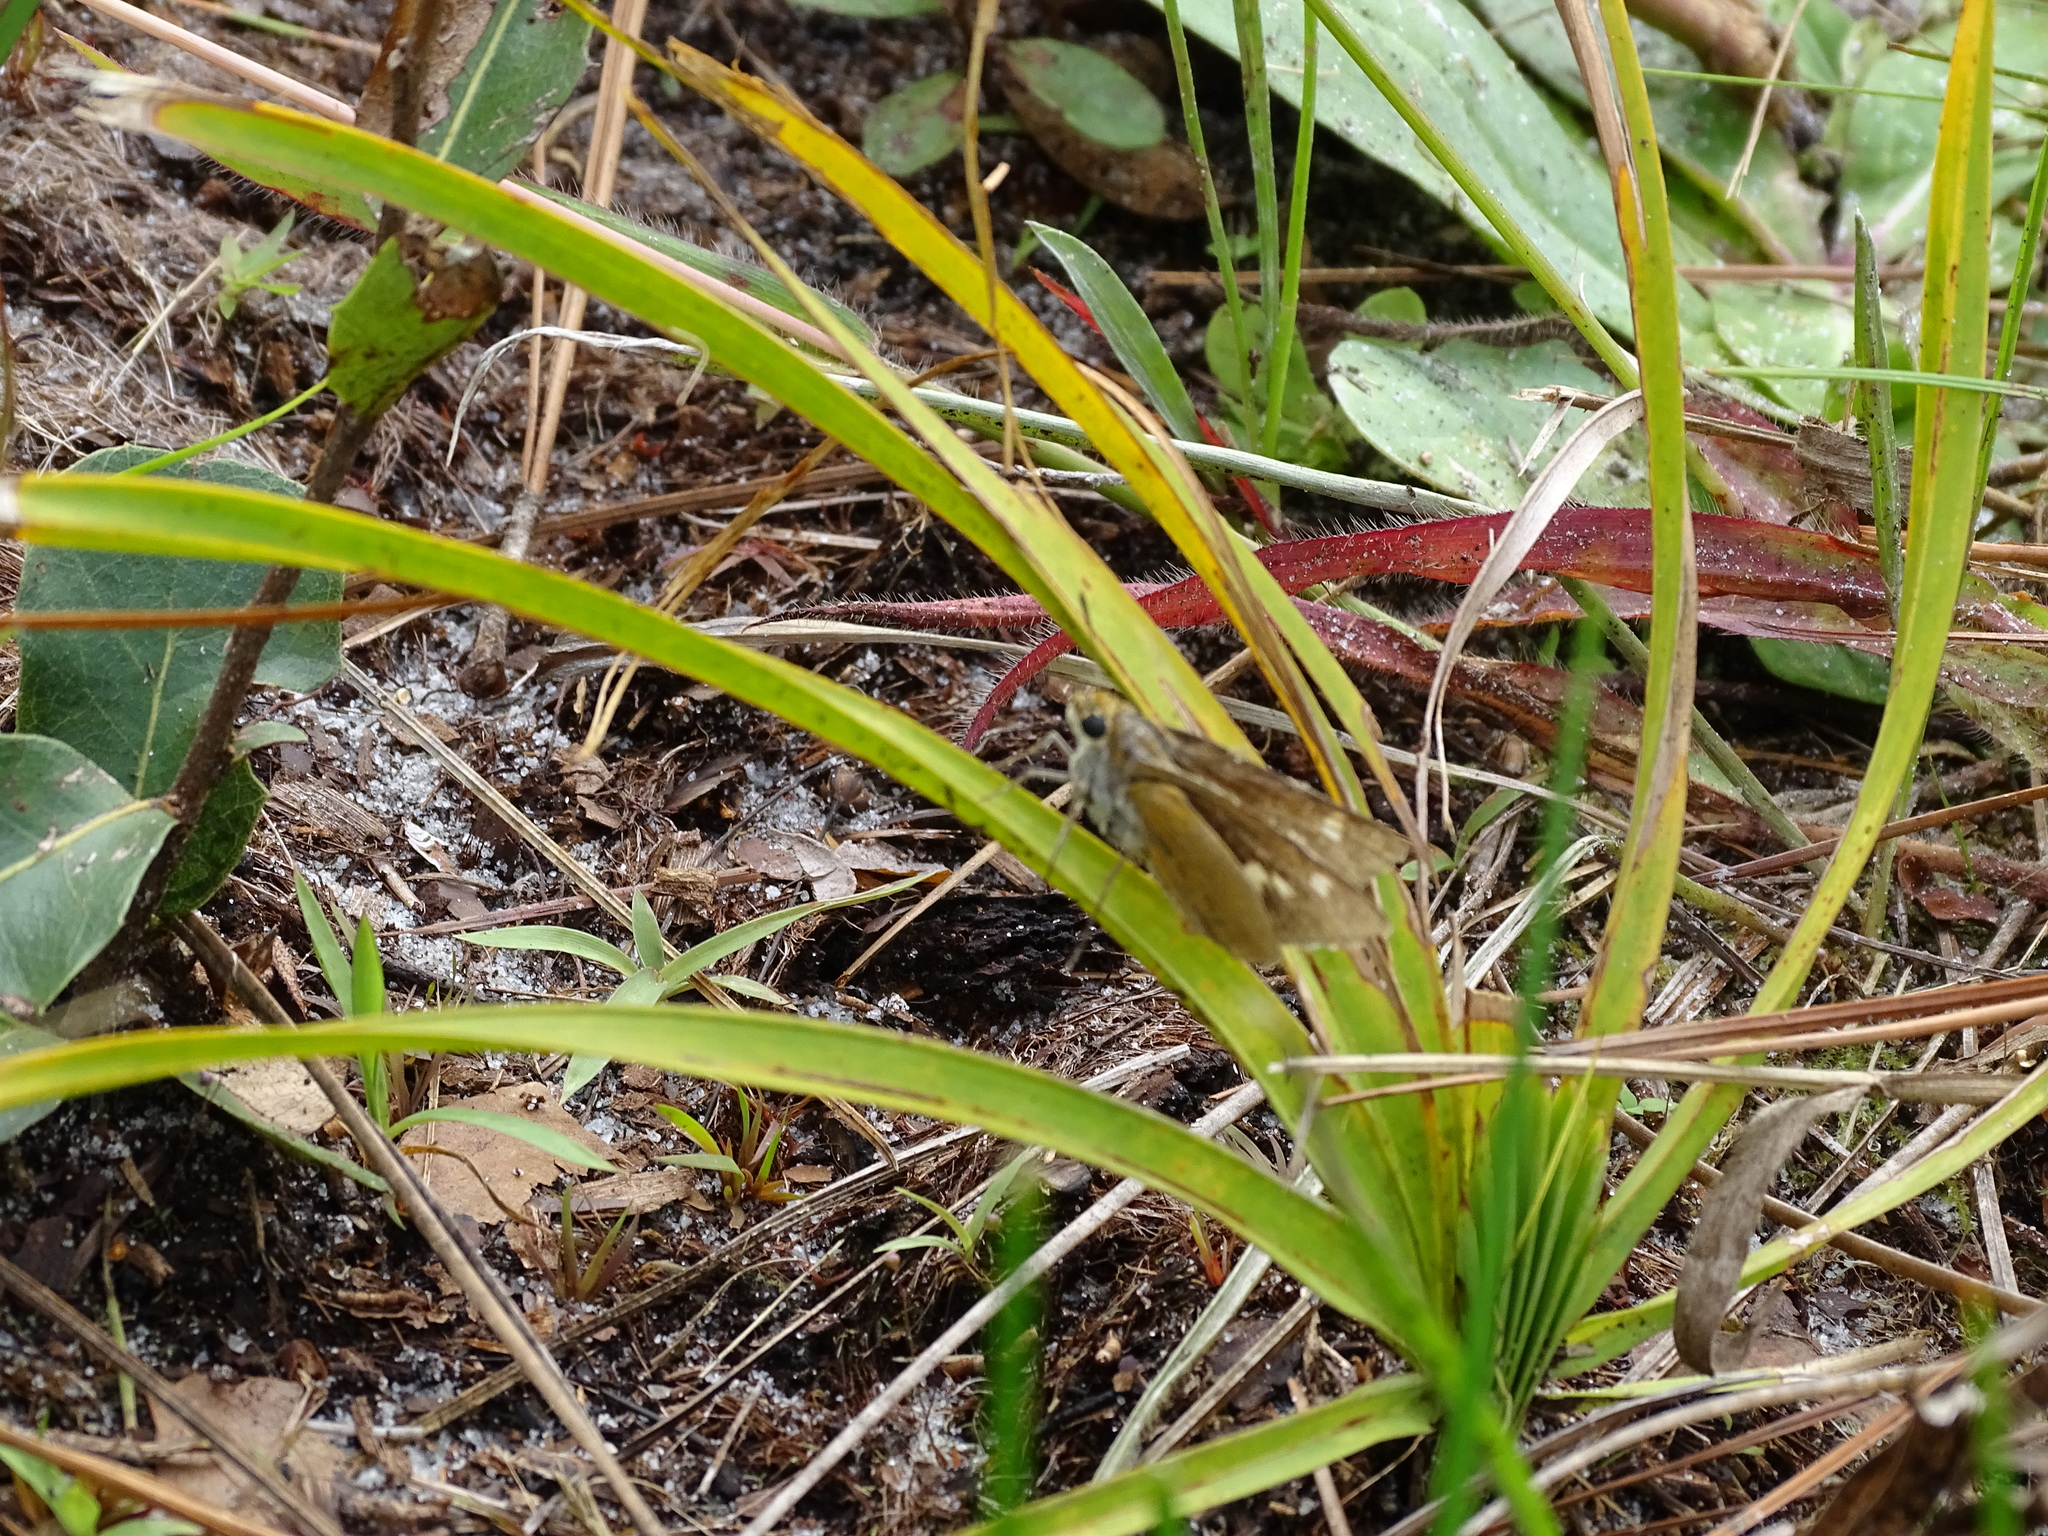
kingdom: Animalia
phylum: Arthropoda
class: Insecta
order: Lepidoptera
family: Hesperiidae
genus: Euphyes
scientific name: Euphyes arpa
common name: Palmetto skipper
